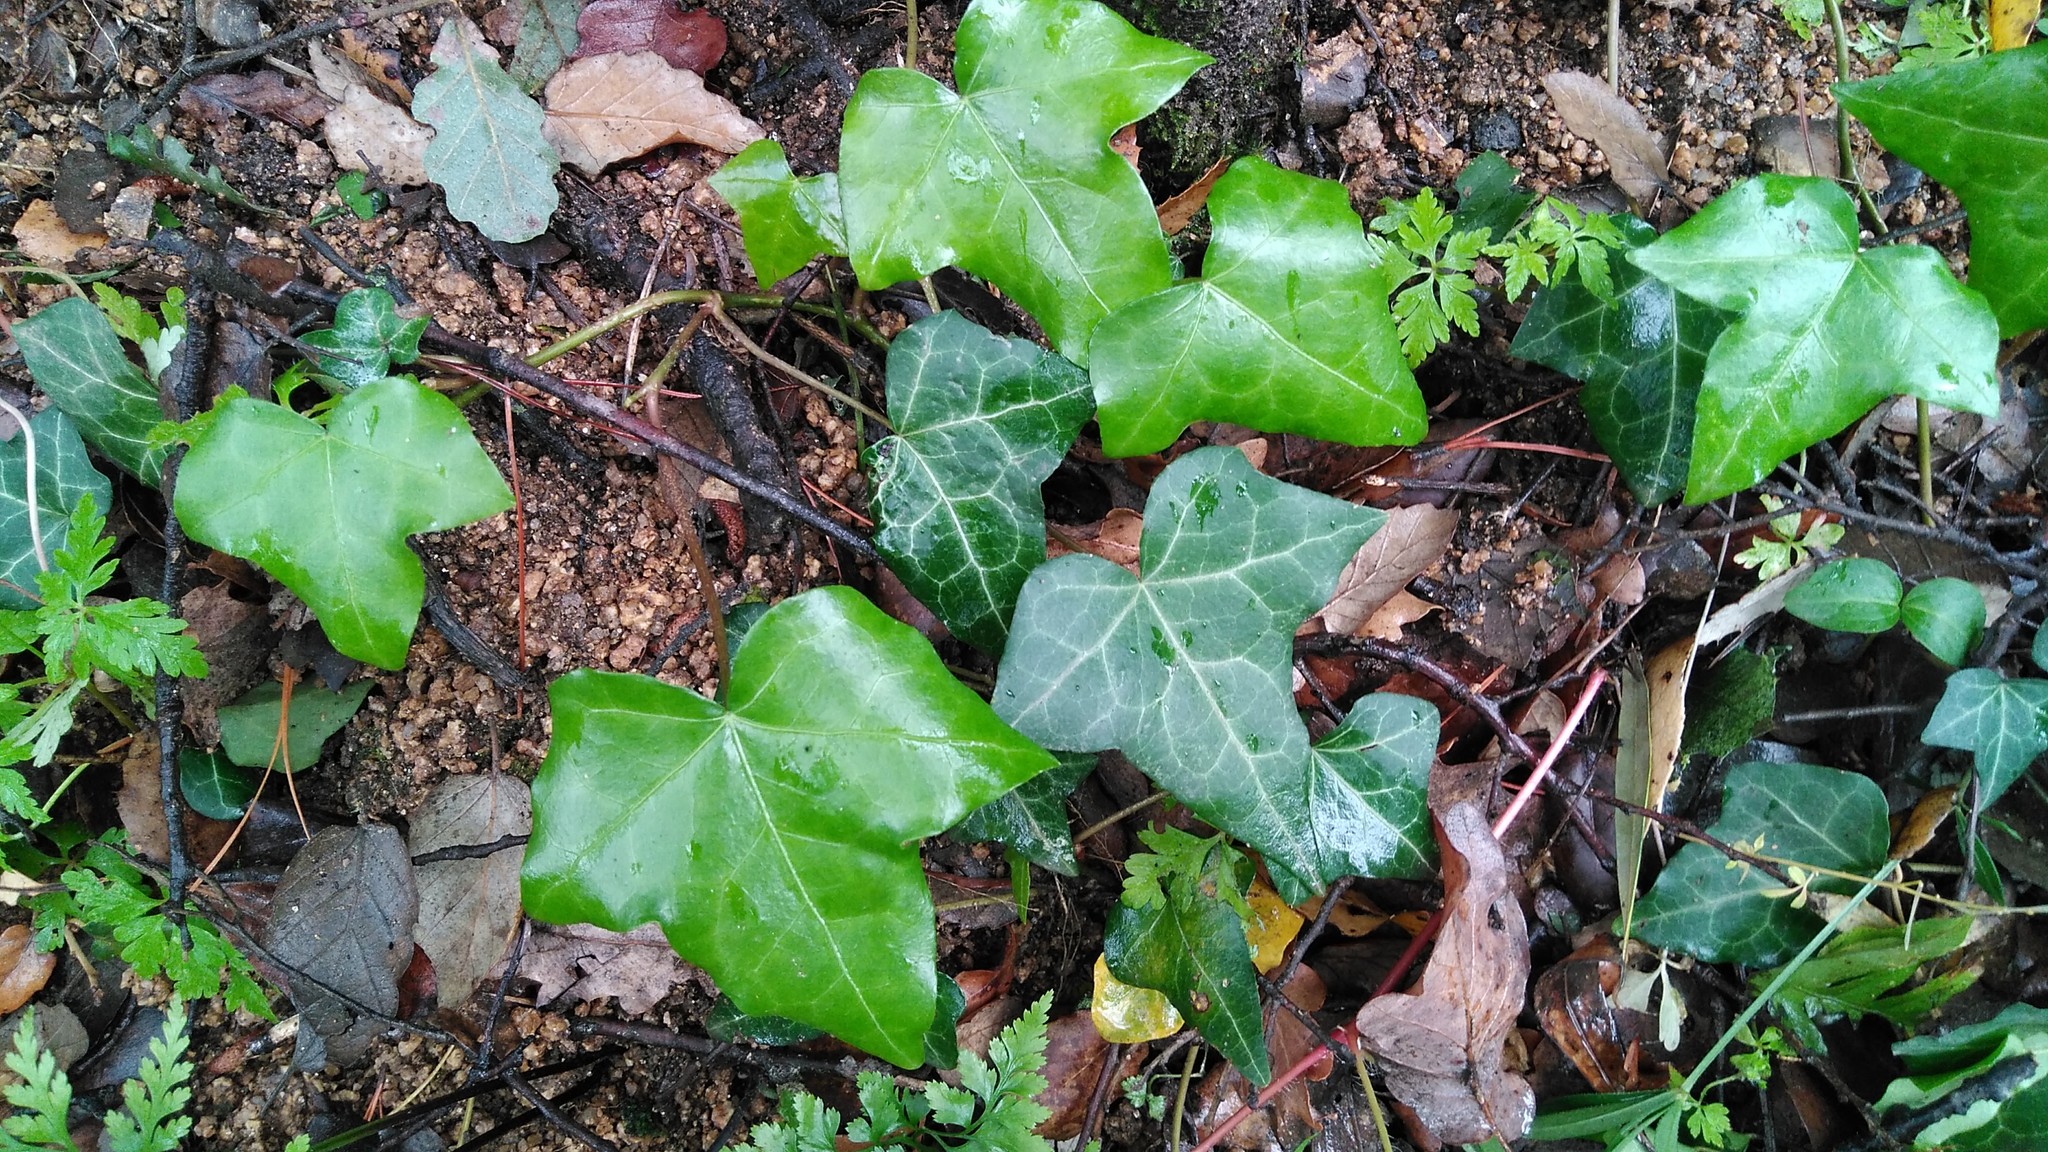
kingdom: Plantae
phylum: Tracheophyta
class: Magnoliopsida
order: Apiales
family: Araliaceae
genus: Hedera
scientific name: Hedera helix
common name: Ivy
